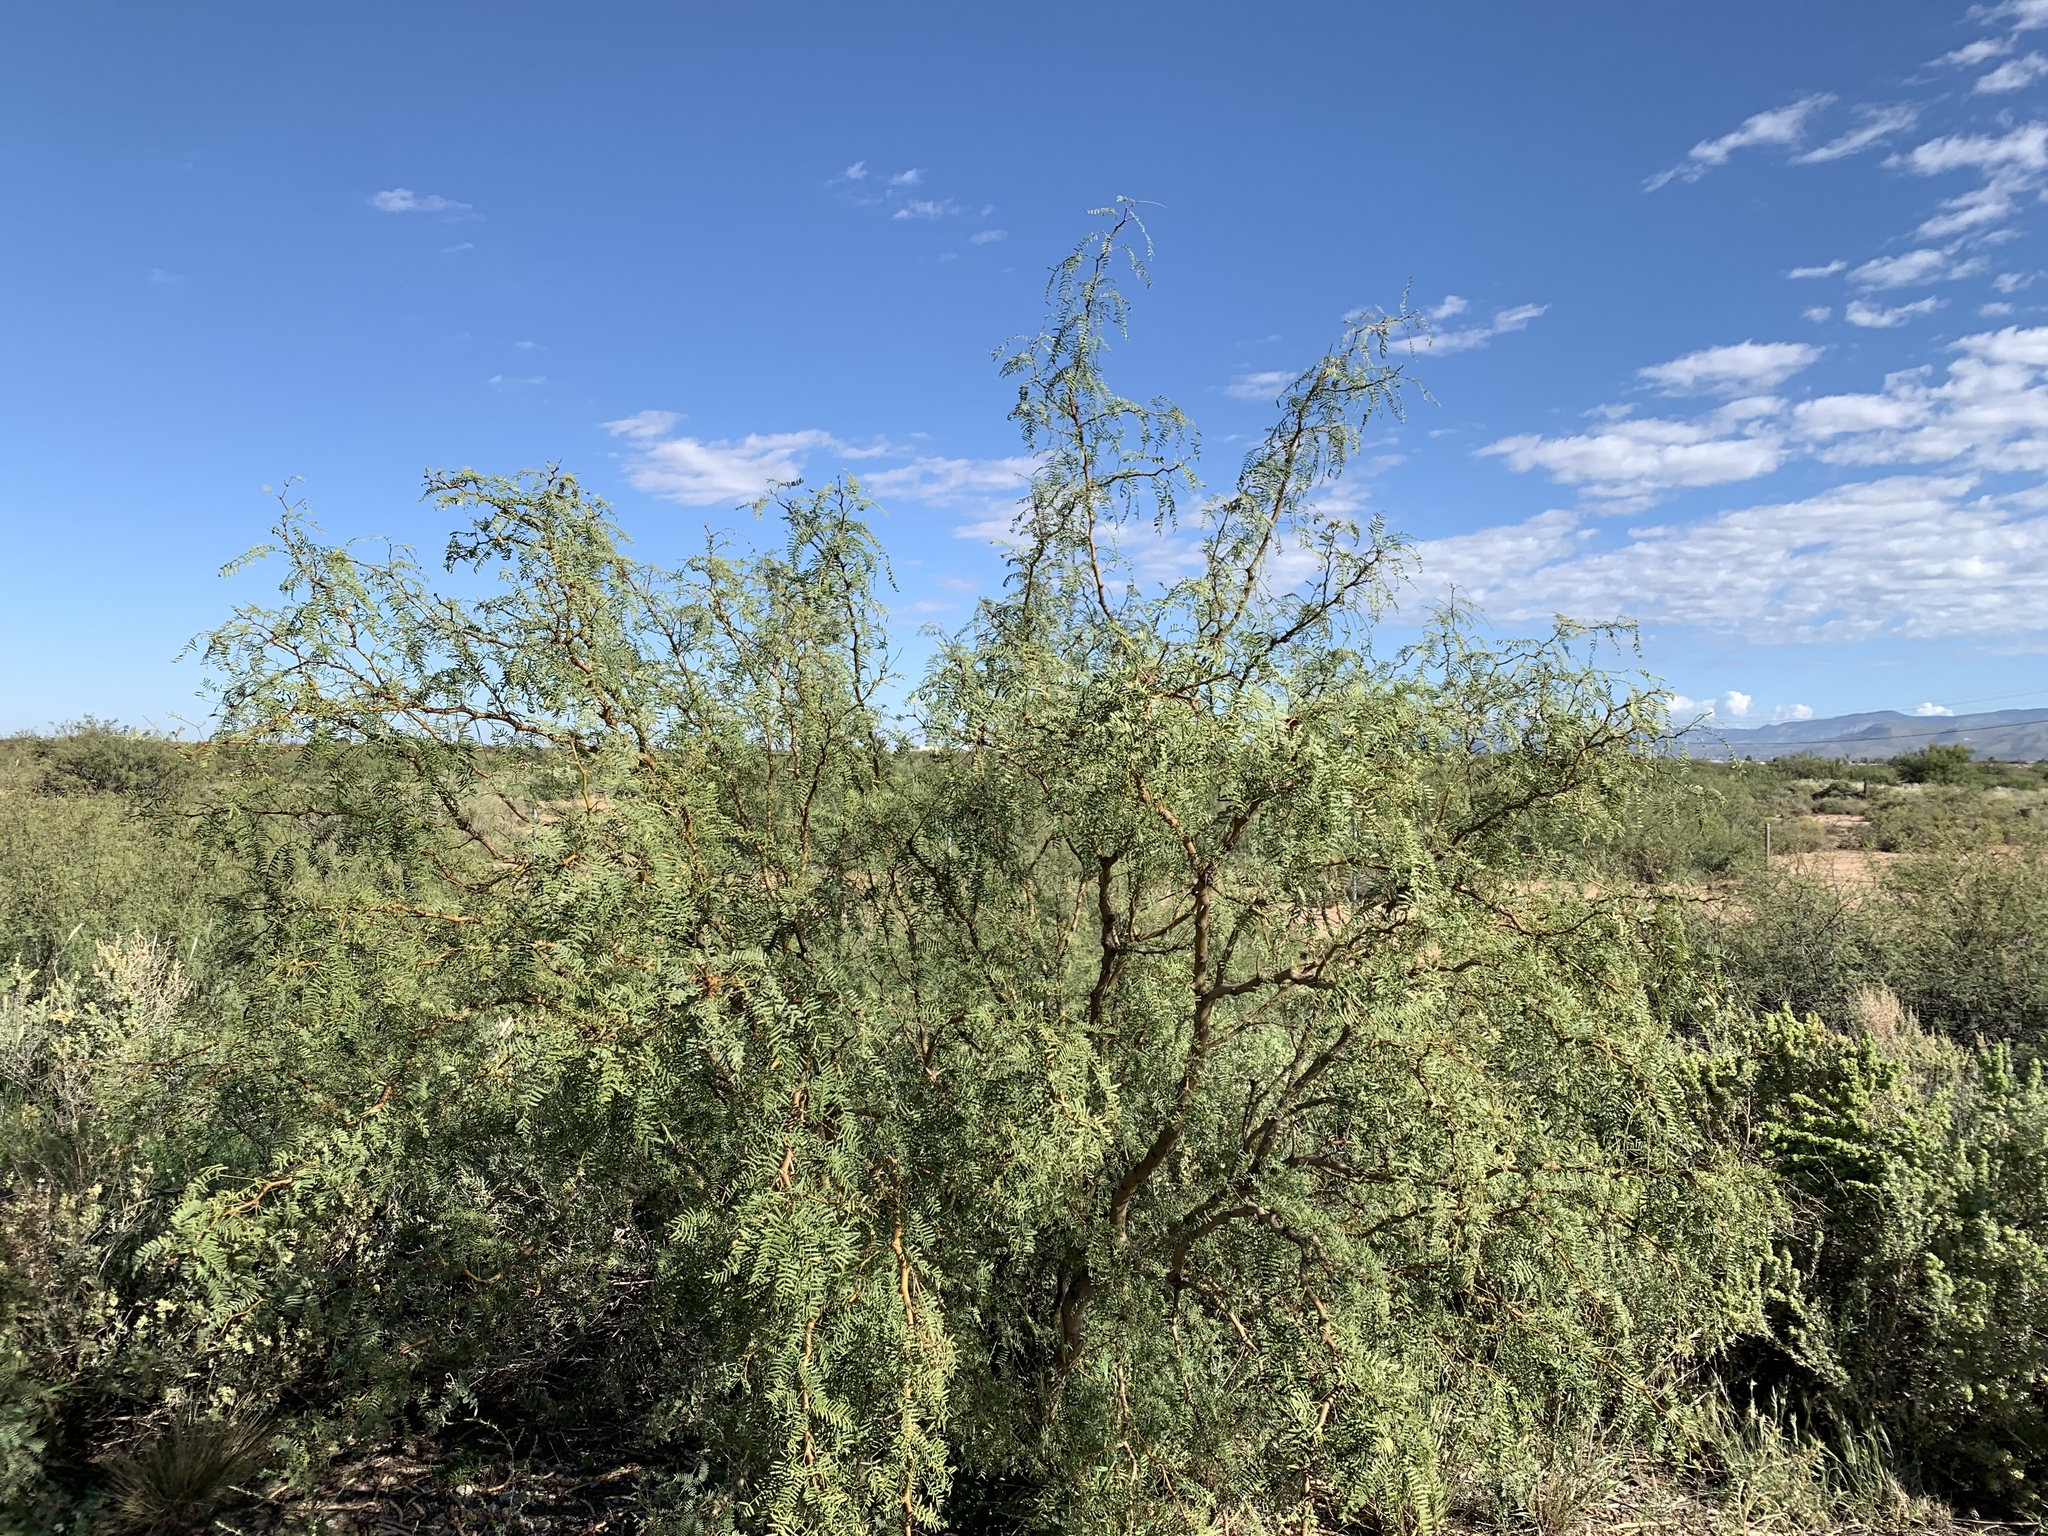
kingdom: Plantae
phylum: Tracheophyta
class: Magnoliopsida
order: Fabales
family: Fabaceae
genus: Prosopis
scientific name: Prosopis glandulosa
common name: Honey mesquite
